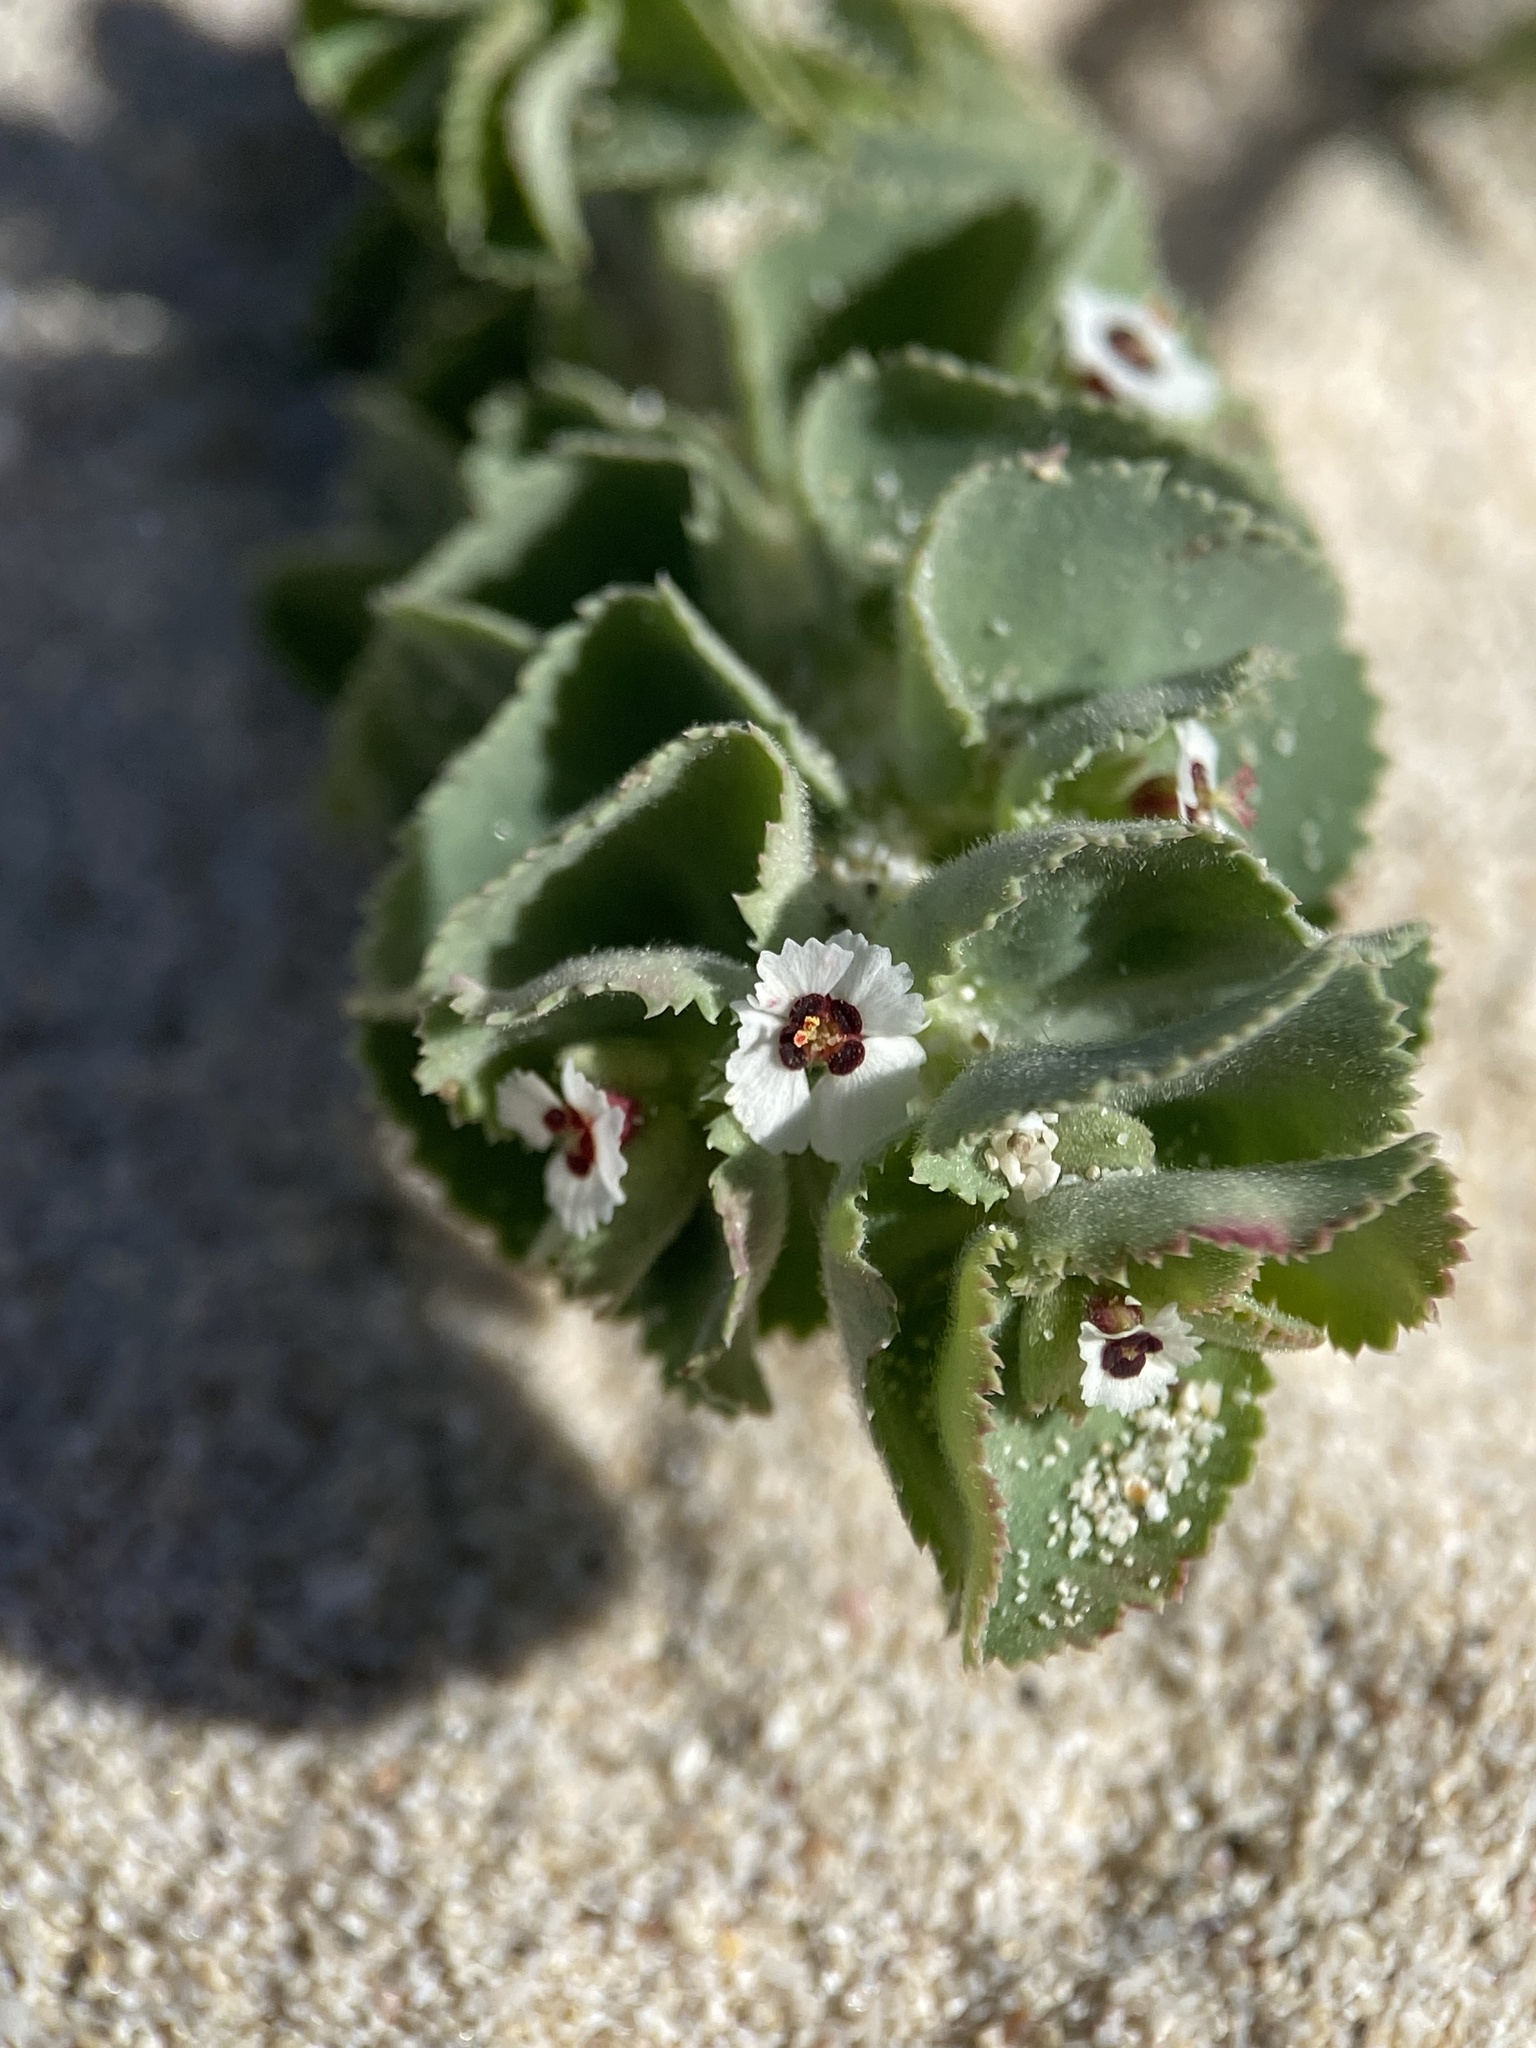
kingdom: Plantae
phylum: Tracheophyta
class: Magnoliopsida
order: Malpighiales
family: Euphorbiaceae
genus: Euphorbia
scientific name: Euphorbia leucophylla
